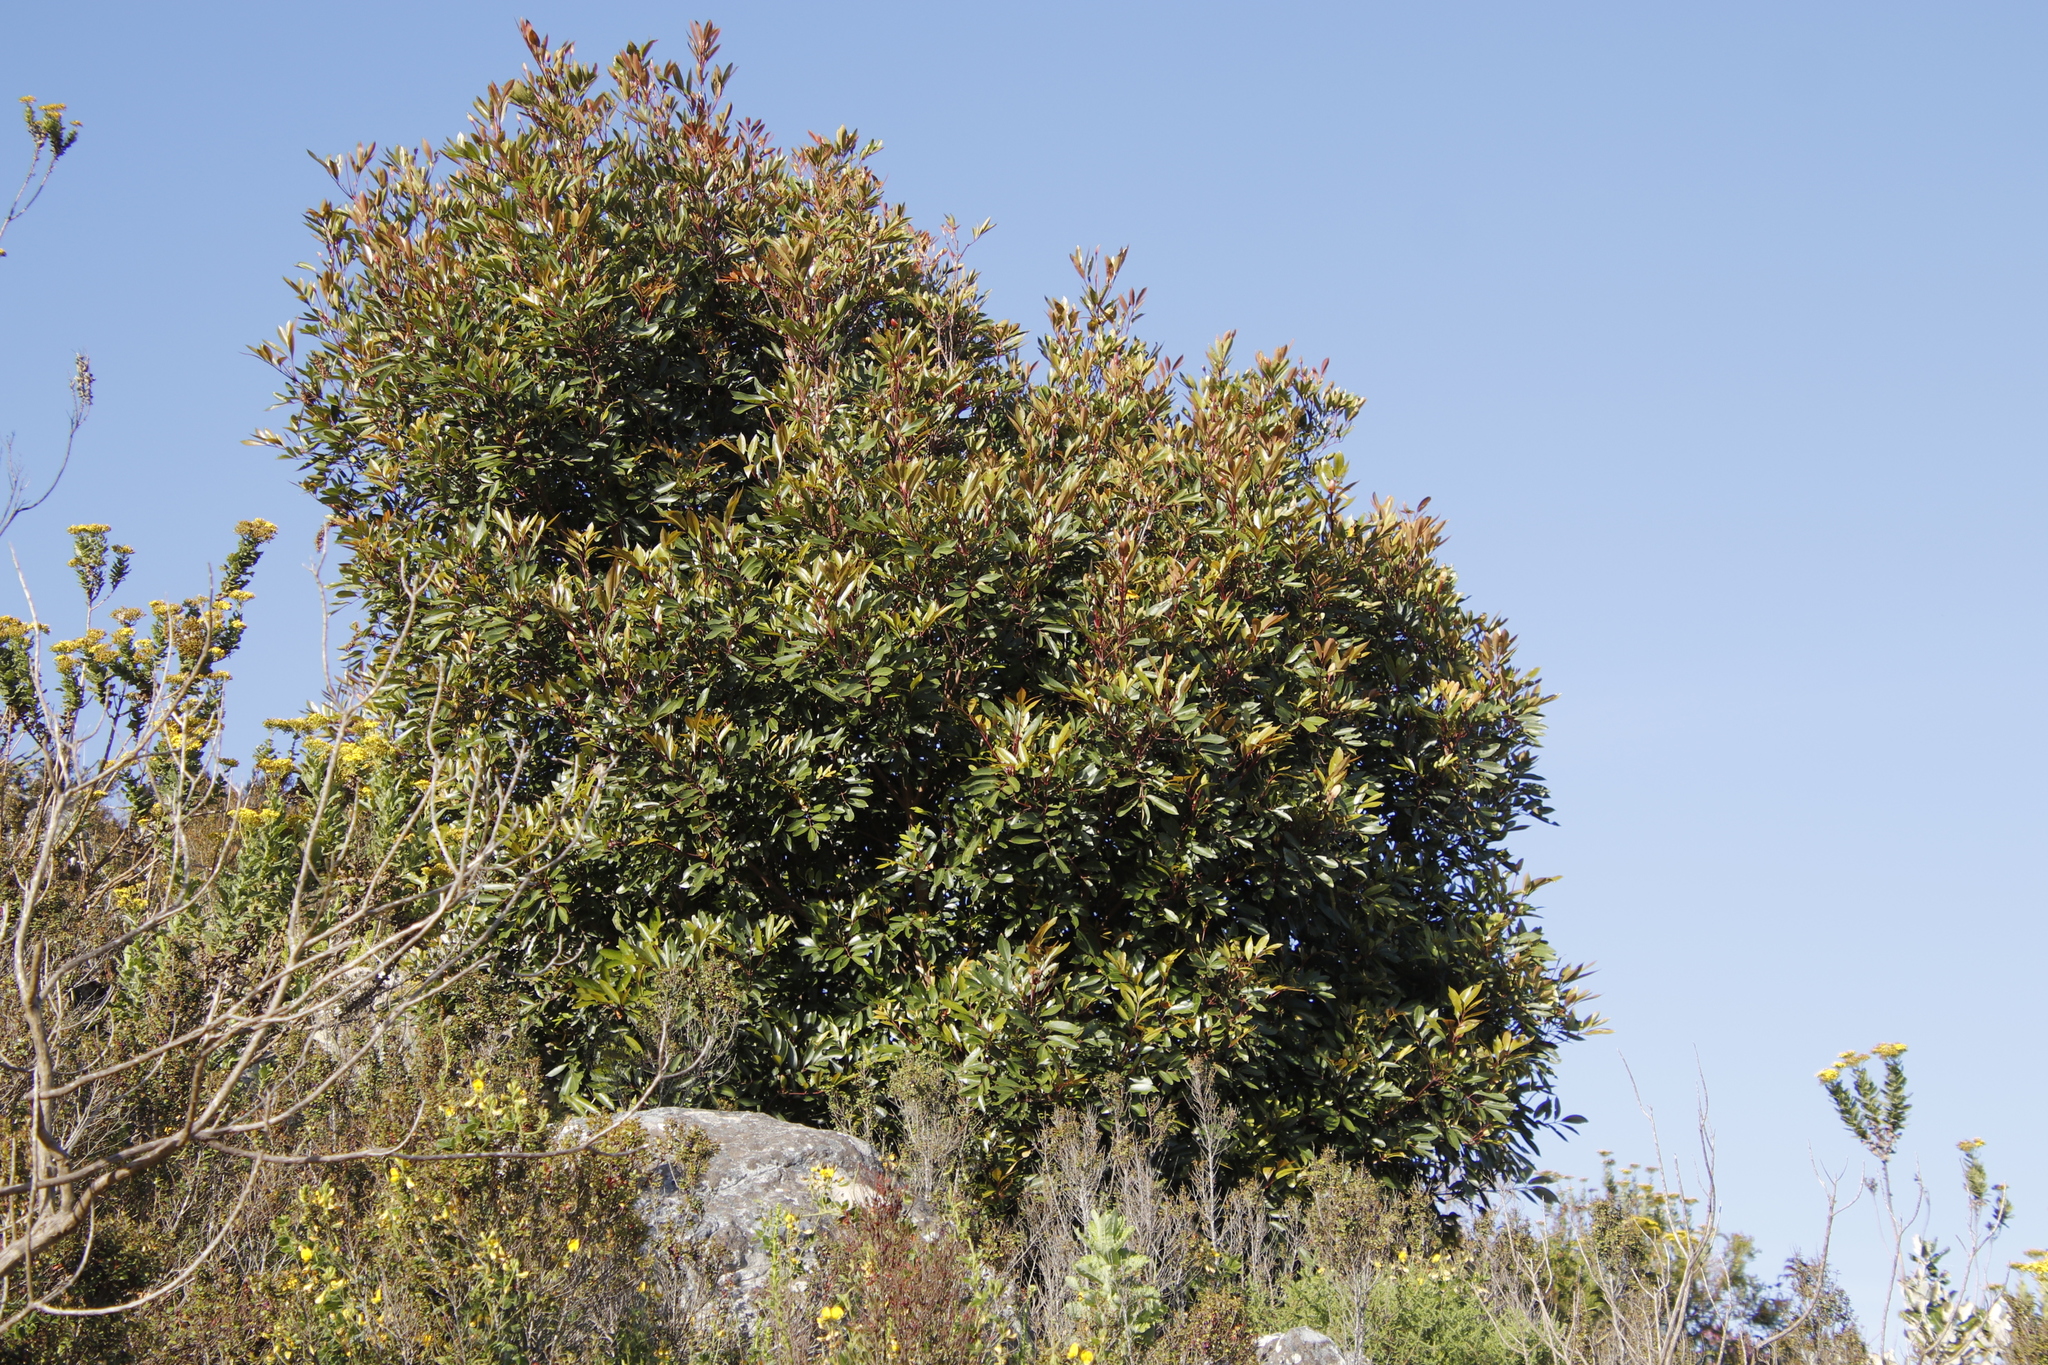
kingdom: Plantae
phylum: Tracheophyta
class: Magnoliopsida
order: Oxalidales
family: Cunoniaceae
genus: Cunonia
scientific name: Cunonia capensis
